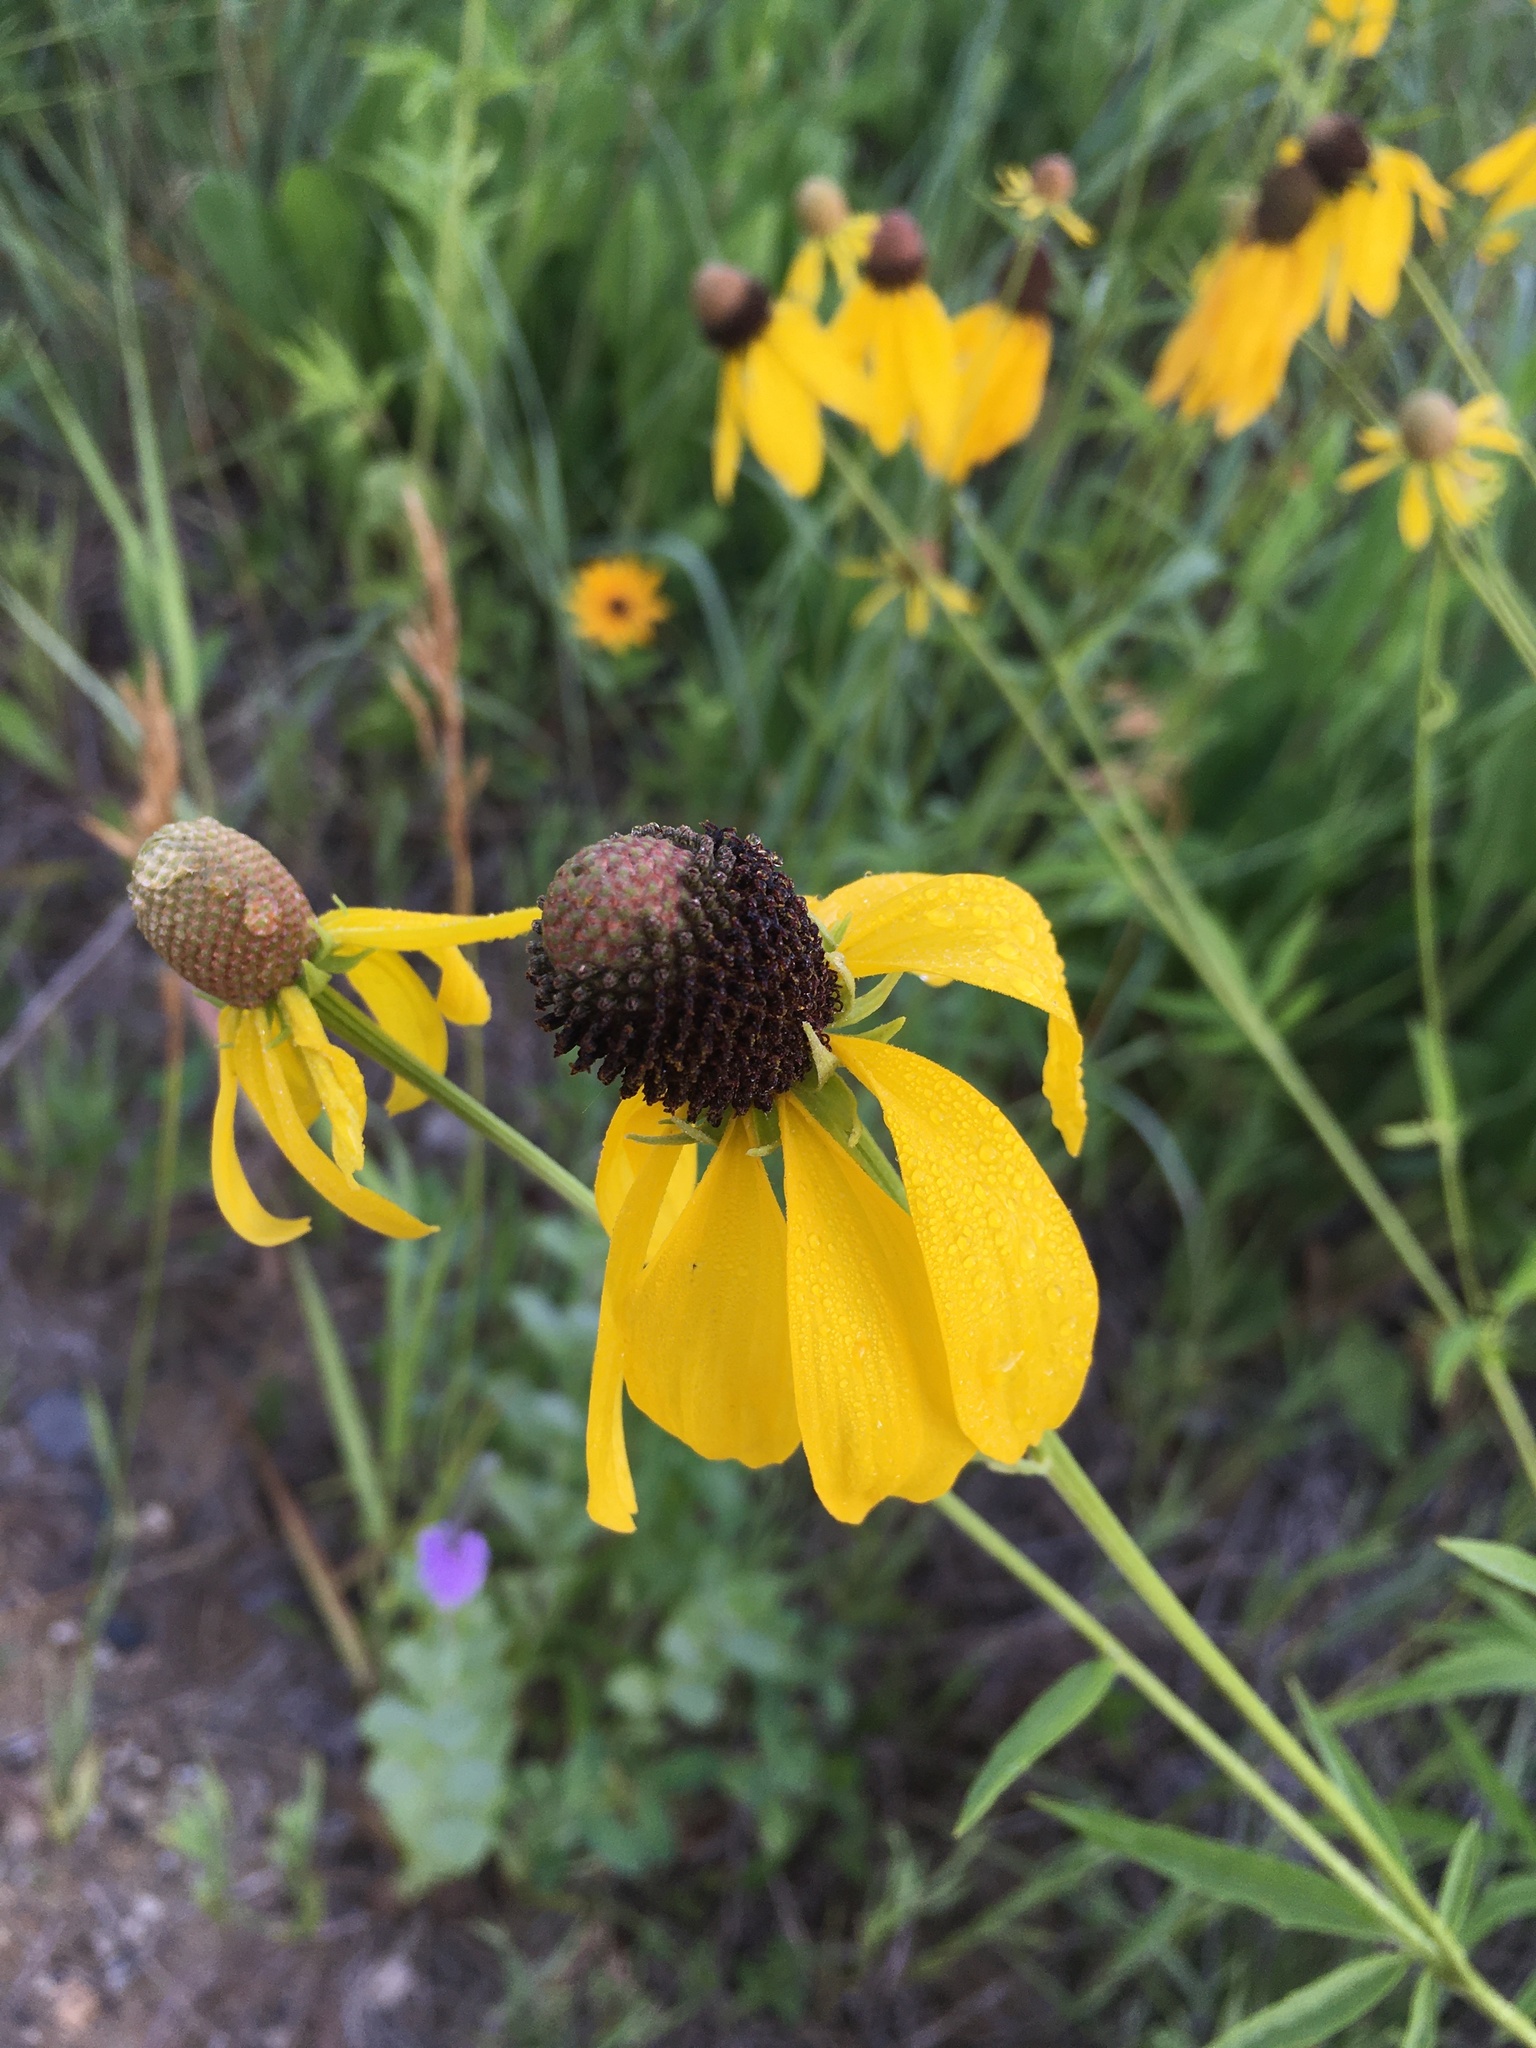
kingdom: Plantae
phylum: Tracheophyta
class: Magnoliopsida
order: Asterales
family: Asteraceae
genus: Ratibida
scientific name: Ratibida pinnata
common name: Drooping prairie-coneflower
